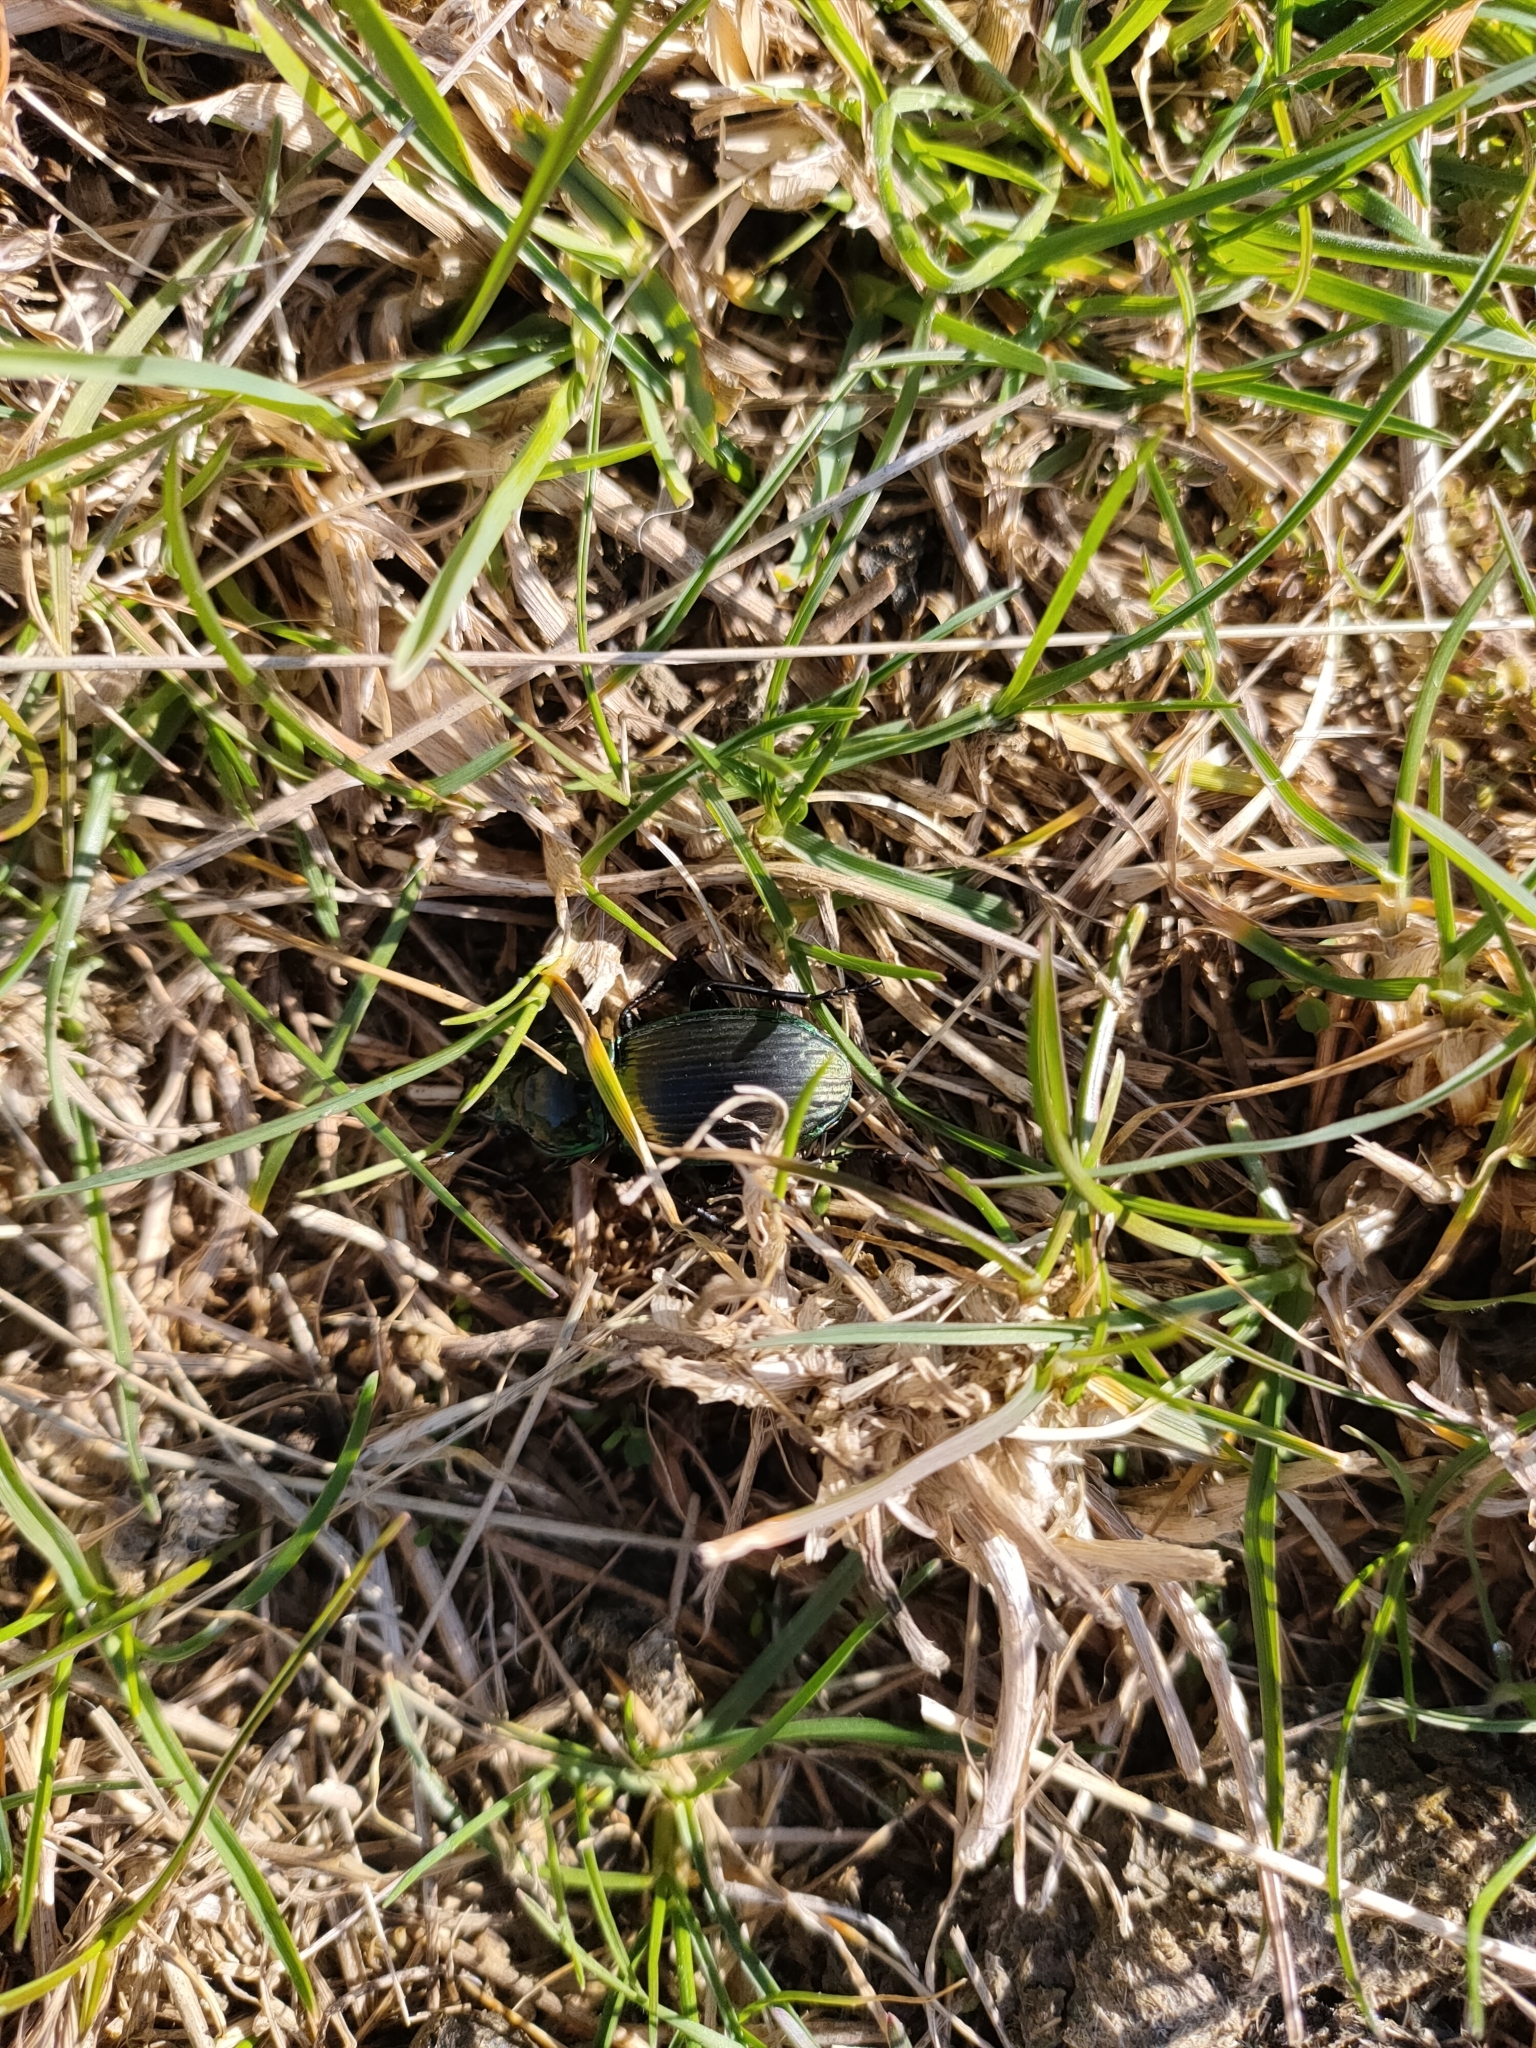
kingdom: Animalia
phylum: Arthropoda
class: Insecta
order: Coleoptera
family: Carabidae
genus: Megadromus
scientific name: Megadromus antarcticus
